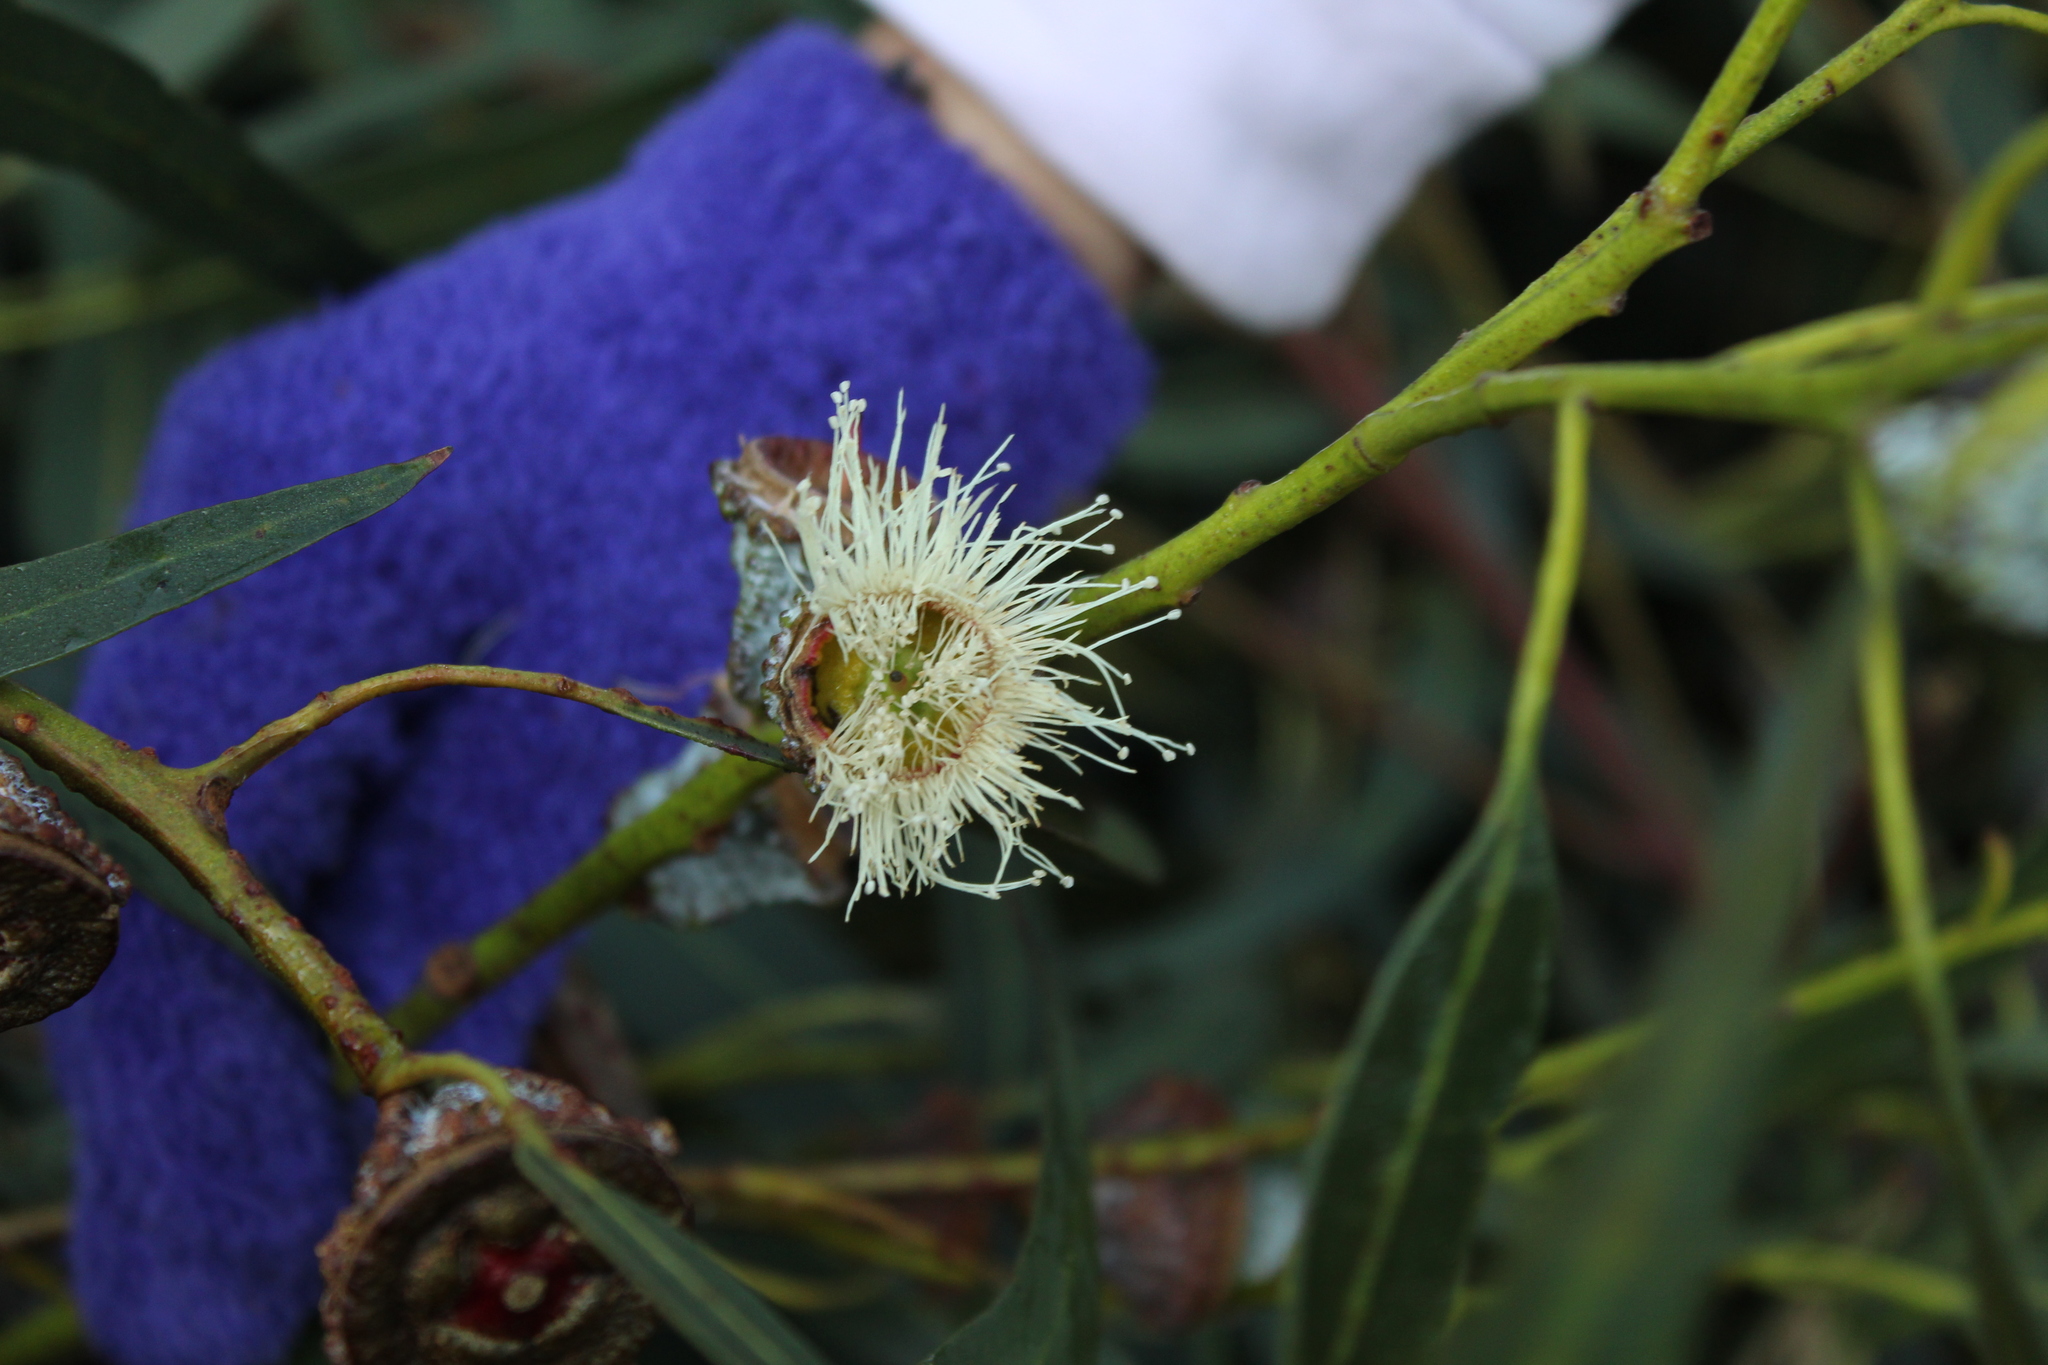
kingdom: Plantae
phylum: Tracheophyta
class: Magnoliopsida
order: Myrtales
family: Myrtaceae
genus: Eucalyptus
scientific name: Eucalyptus globulus
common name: Southern blue-gum
